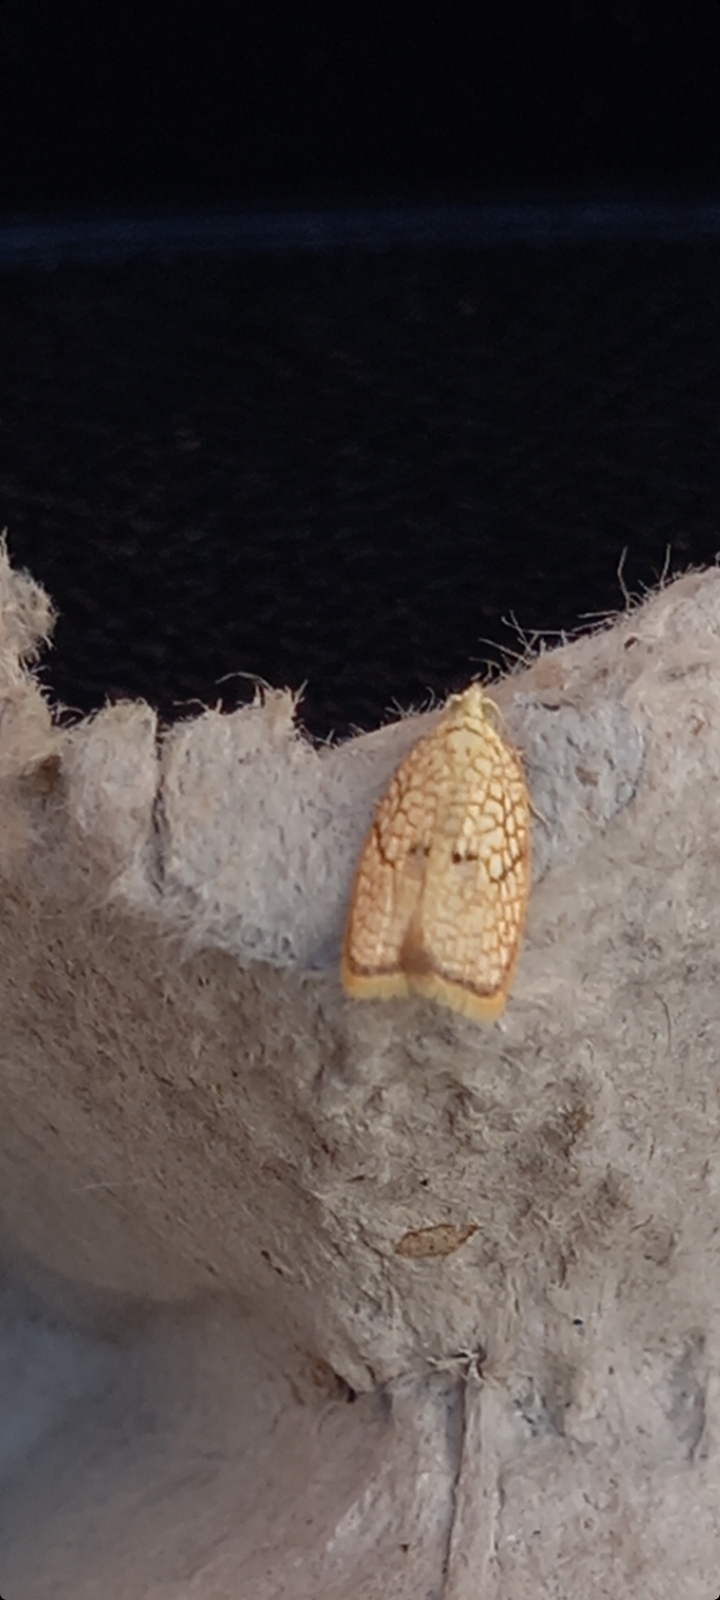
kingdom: Animalia
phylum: Arthropoda
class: Insecta
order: Lepidoptera
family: Tortricidae
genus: Acleris
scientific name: Acleris forsskaleana
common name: Maple button
